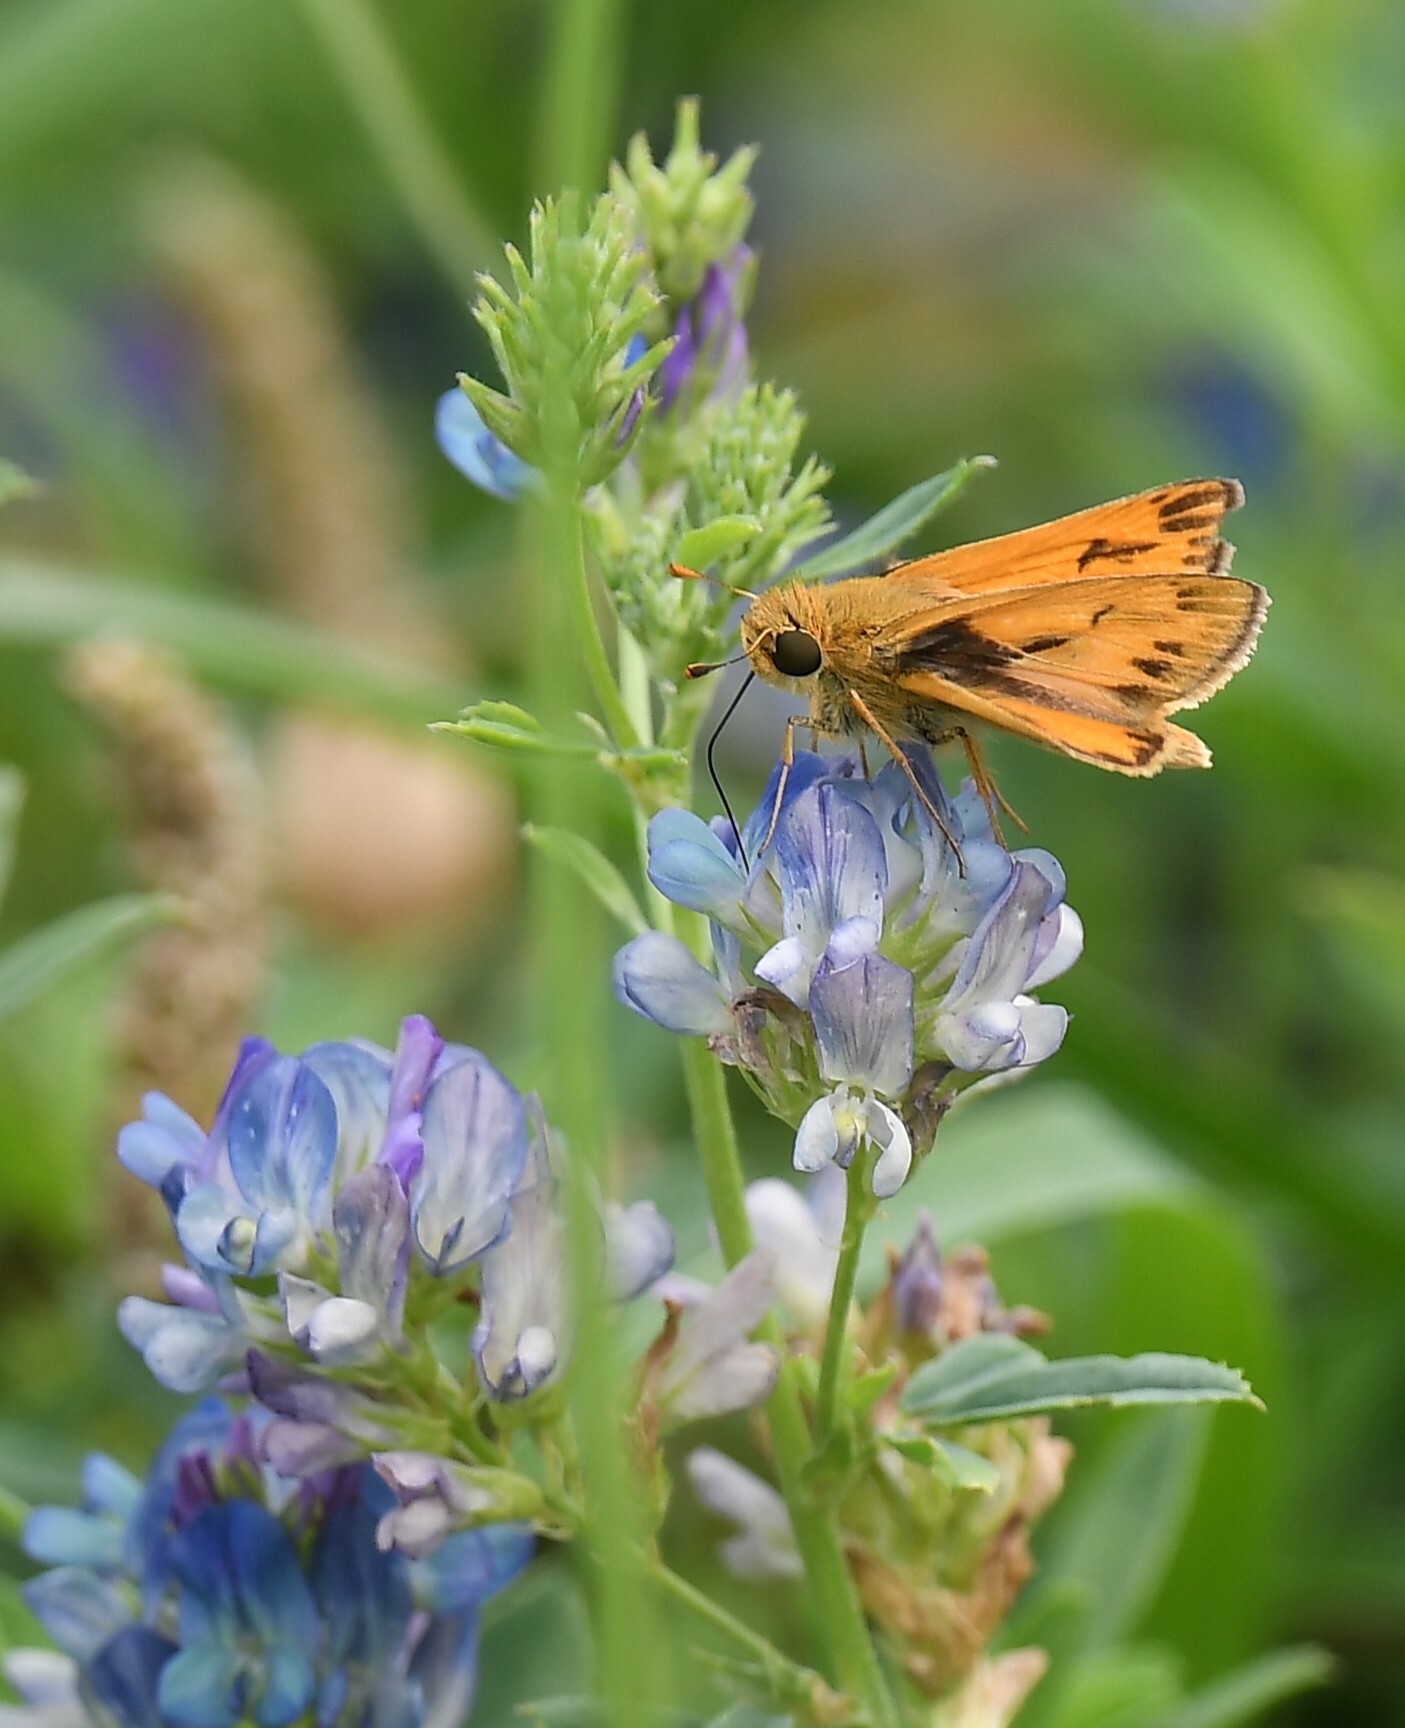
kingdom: Animalia
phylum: Arthropoda
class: Insecta
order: Lepidoptera
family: Hesperiidae
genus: Hylephila
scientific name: Hylephila phyleus
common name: Fiery skipper
